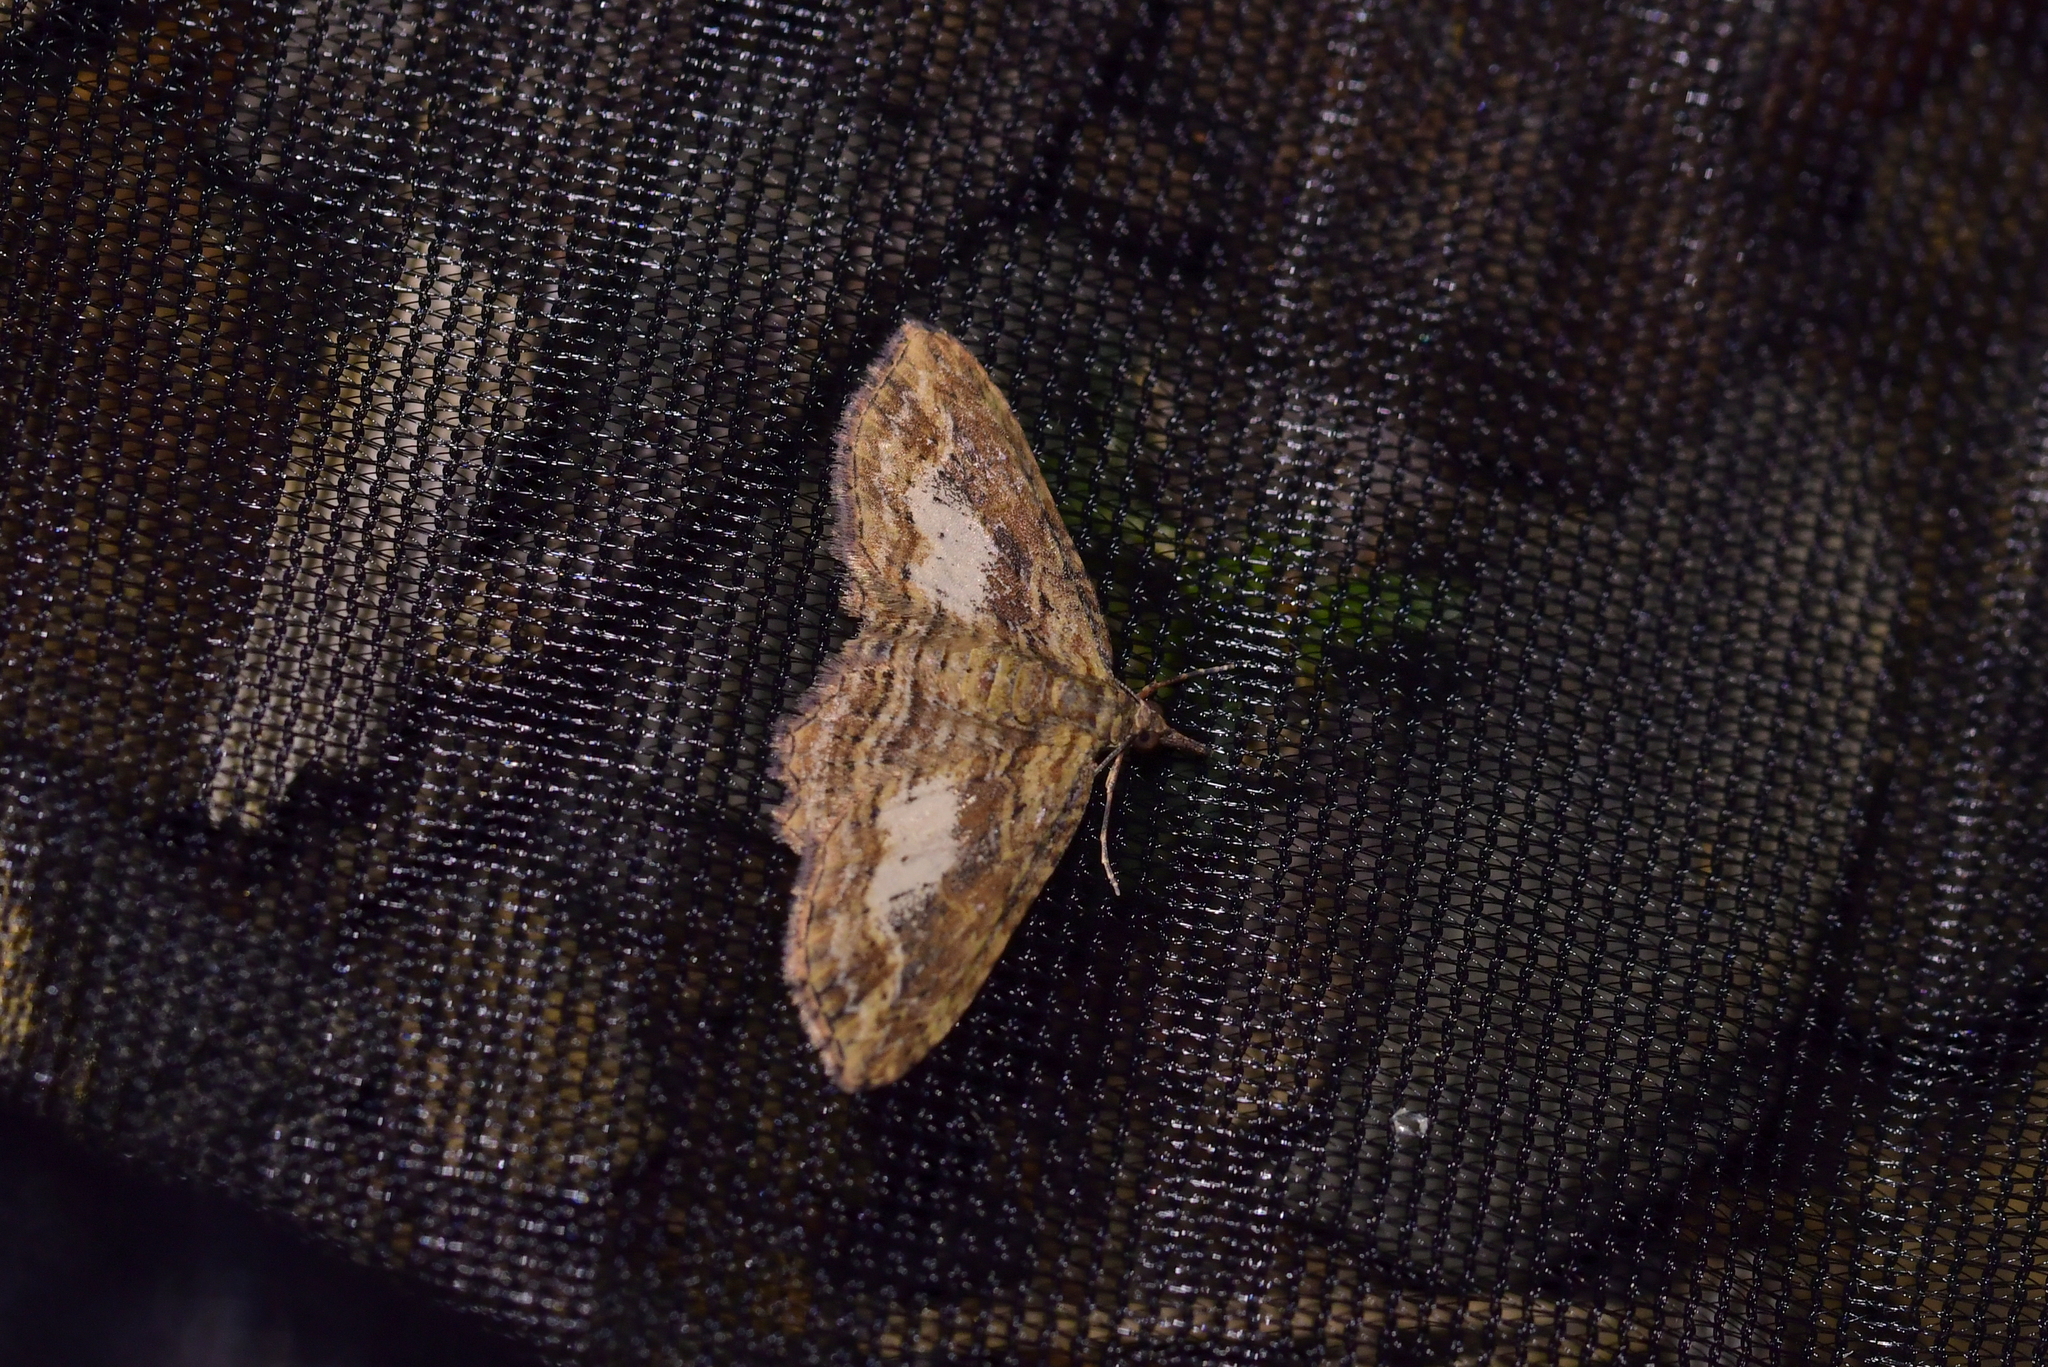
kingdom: Animalia
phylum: Arthropoda
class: Insecta
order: Lepidoptera
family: Geometridae
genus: Chloroclystis
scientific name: Chloroclystis filata
